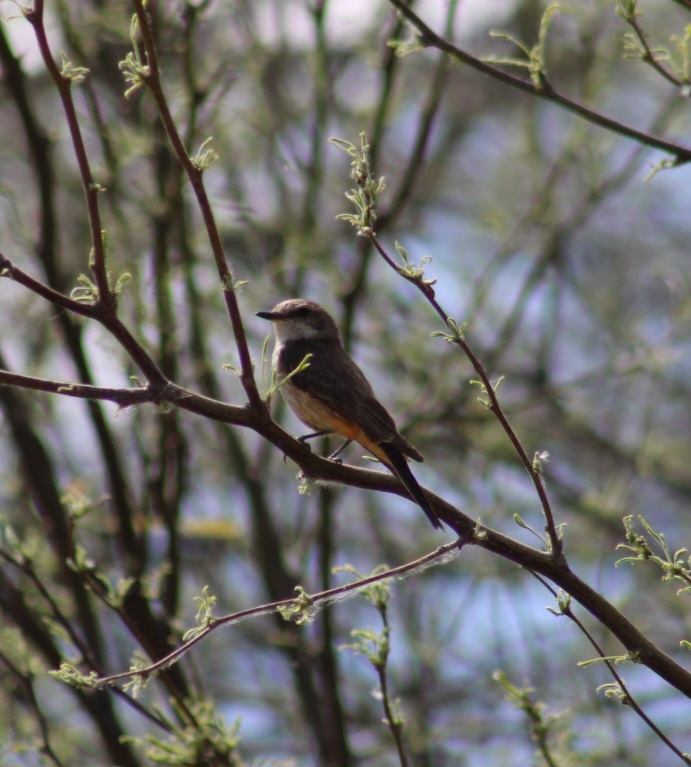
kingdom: Animalia
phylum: Chordata
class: Aves
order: Passeriformes
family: Tyrannidae
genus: Pyrocephalus
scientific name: Pyrocephalus rubinus
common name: Vermilion flycatcher
